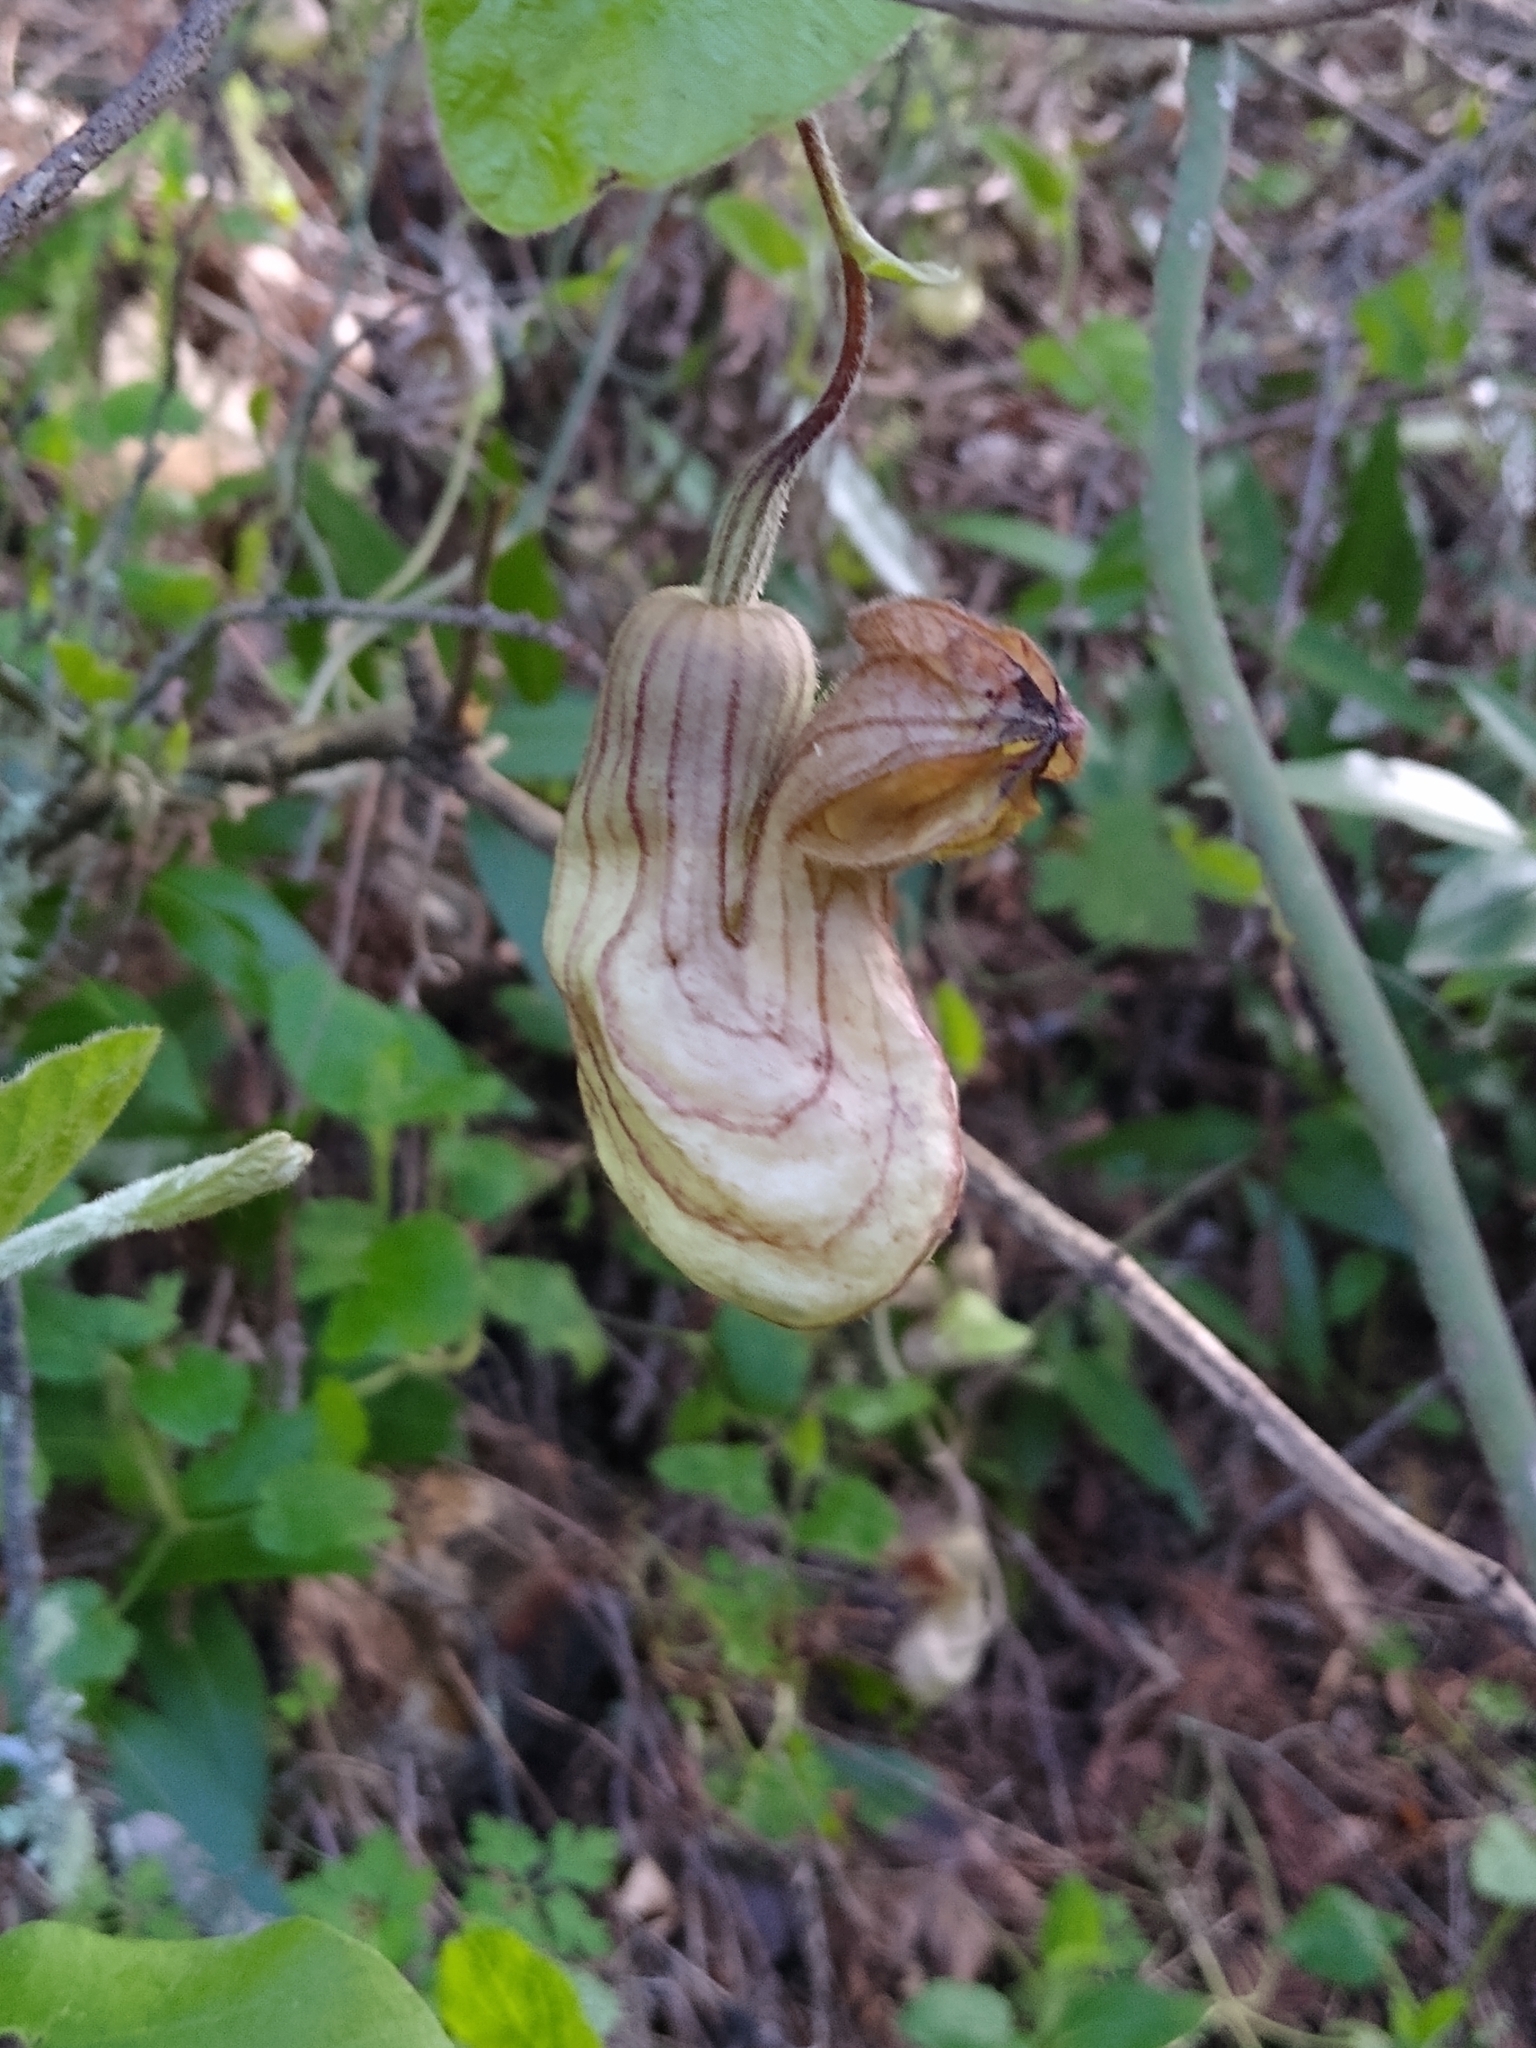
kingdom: Plantae
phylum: Tracheophyta
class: Magnoliopsida
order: Piperales
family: Aristolochiaceae
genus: Isotrema
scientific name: Isotrema californicum
